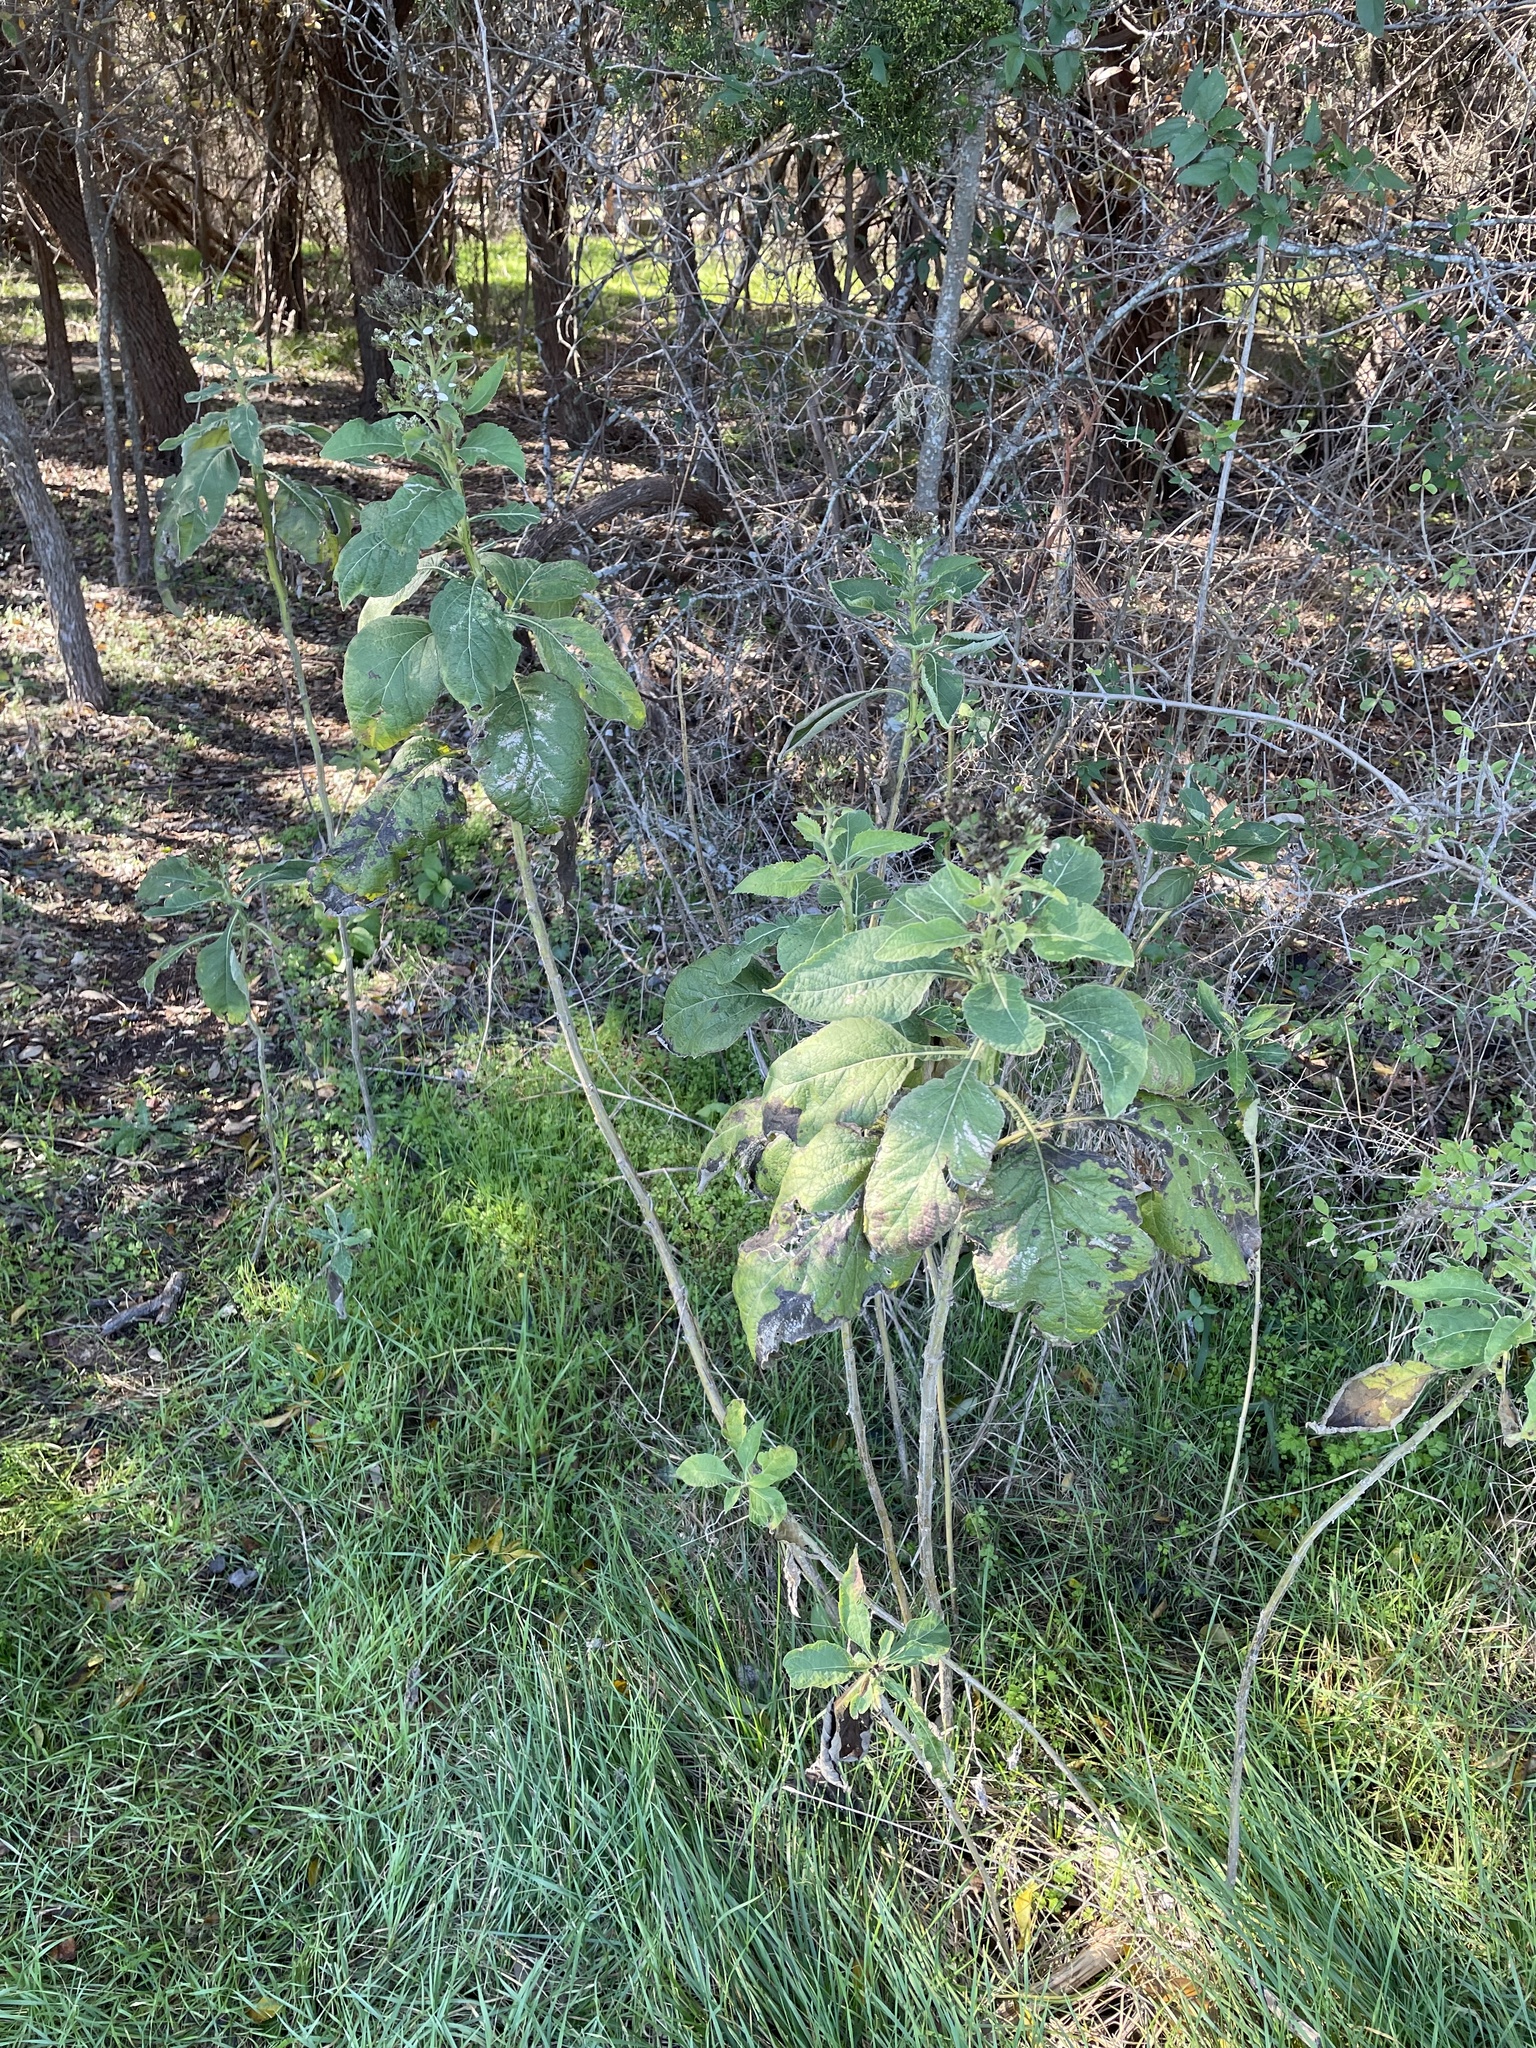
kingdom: Plantae
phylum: Tracheophyta
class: Magnoliopsida
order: Asterales
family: Asteraceae
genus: Verbesina
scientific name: Verbesina virginica
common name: Frostweed
